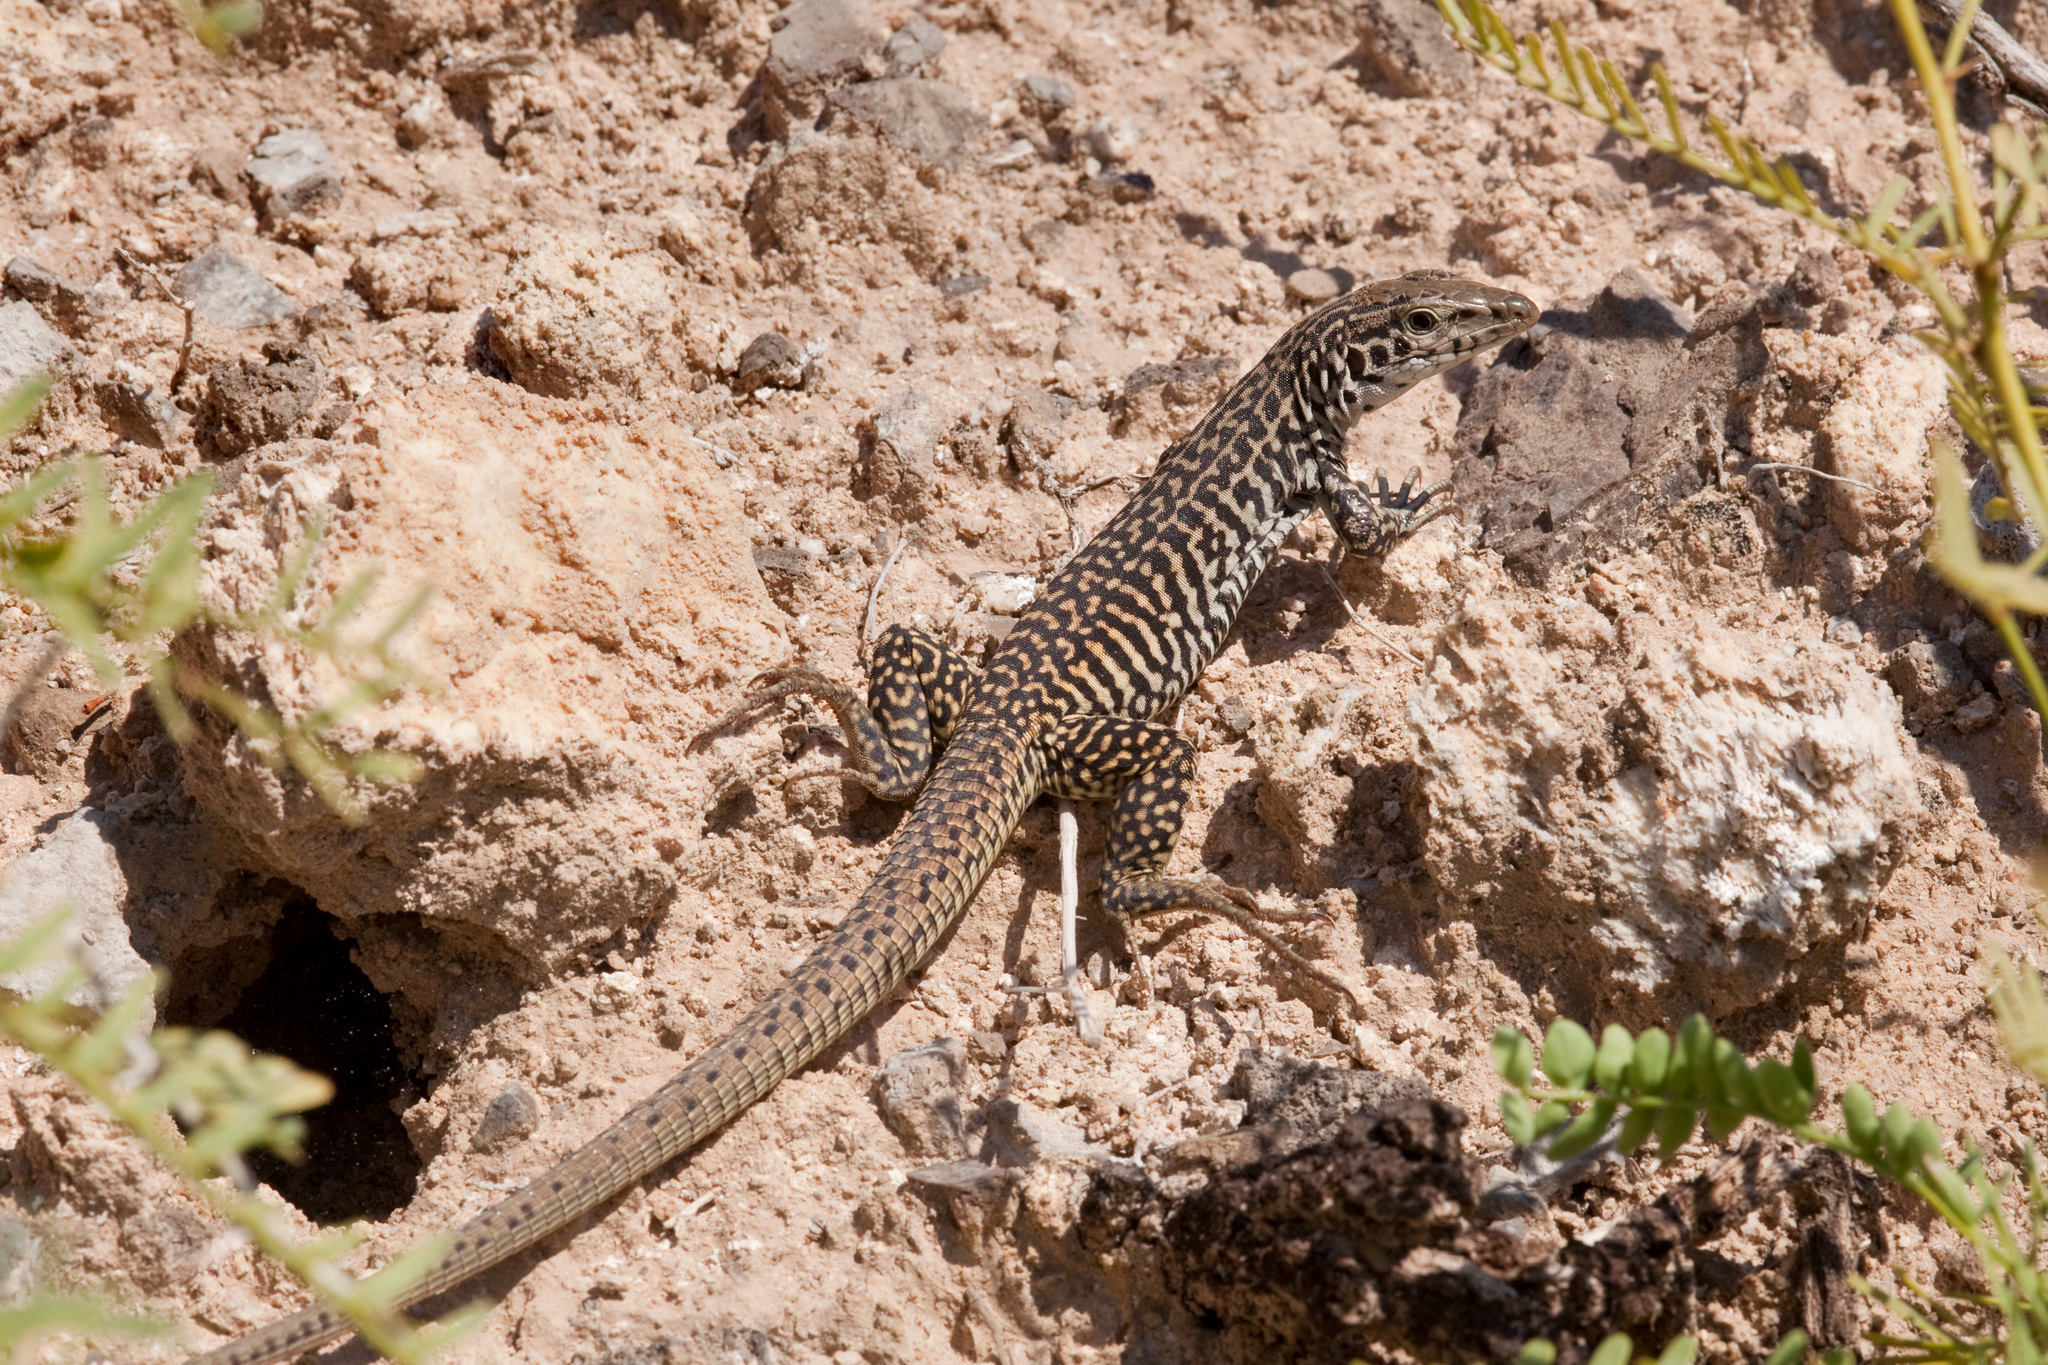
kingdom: Animalia
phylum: Chordata
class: Squamata
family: Teiidae
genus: Aspidoscelis
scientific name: Aspidoscelis tesselatus
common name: Common checkered whiptail [tesselata]
